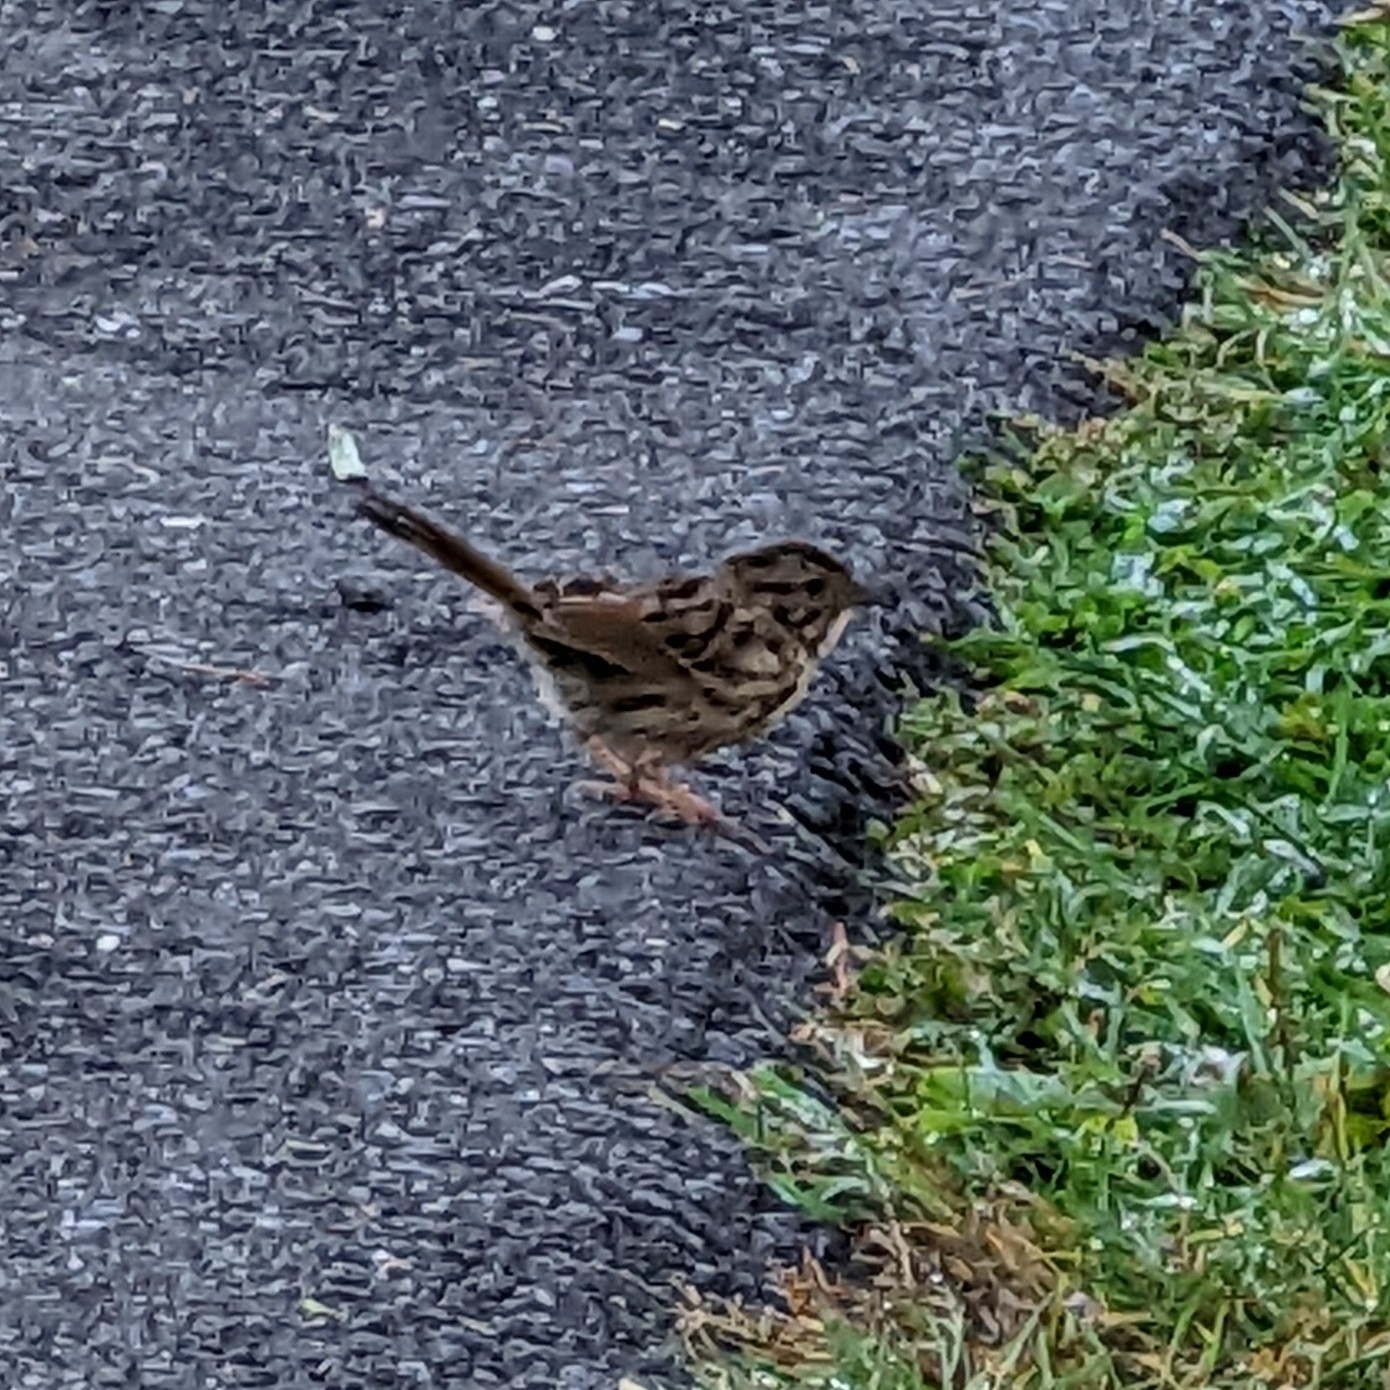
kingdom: Animalia
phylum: Chordata
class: Aves
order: Passeriformes
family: Passerellidae
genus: Melospiza
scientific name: Melospiza melodia
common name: Song sparrow
